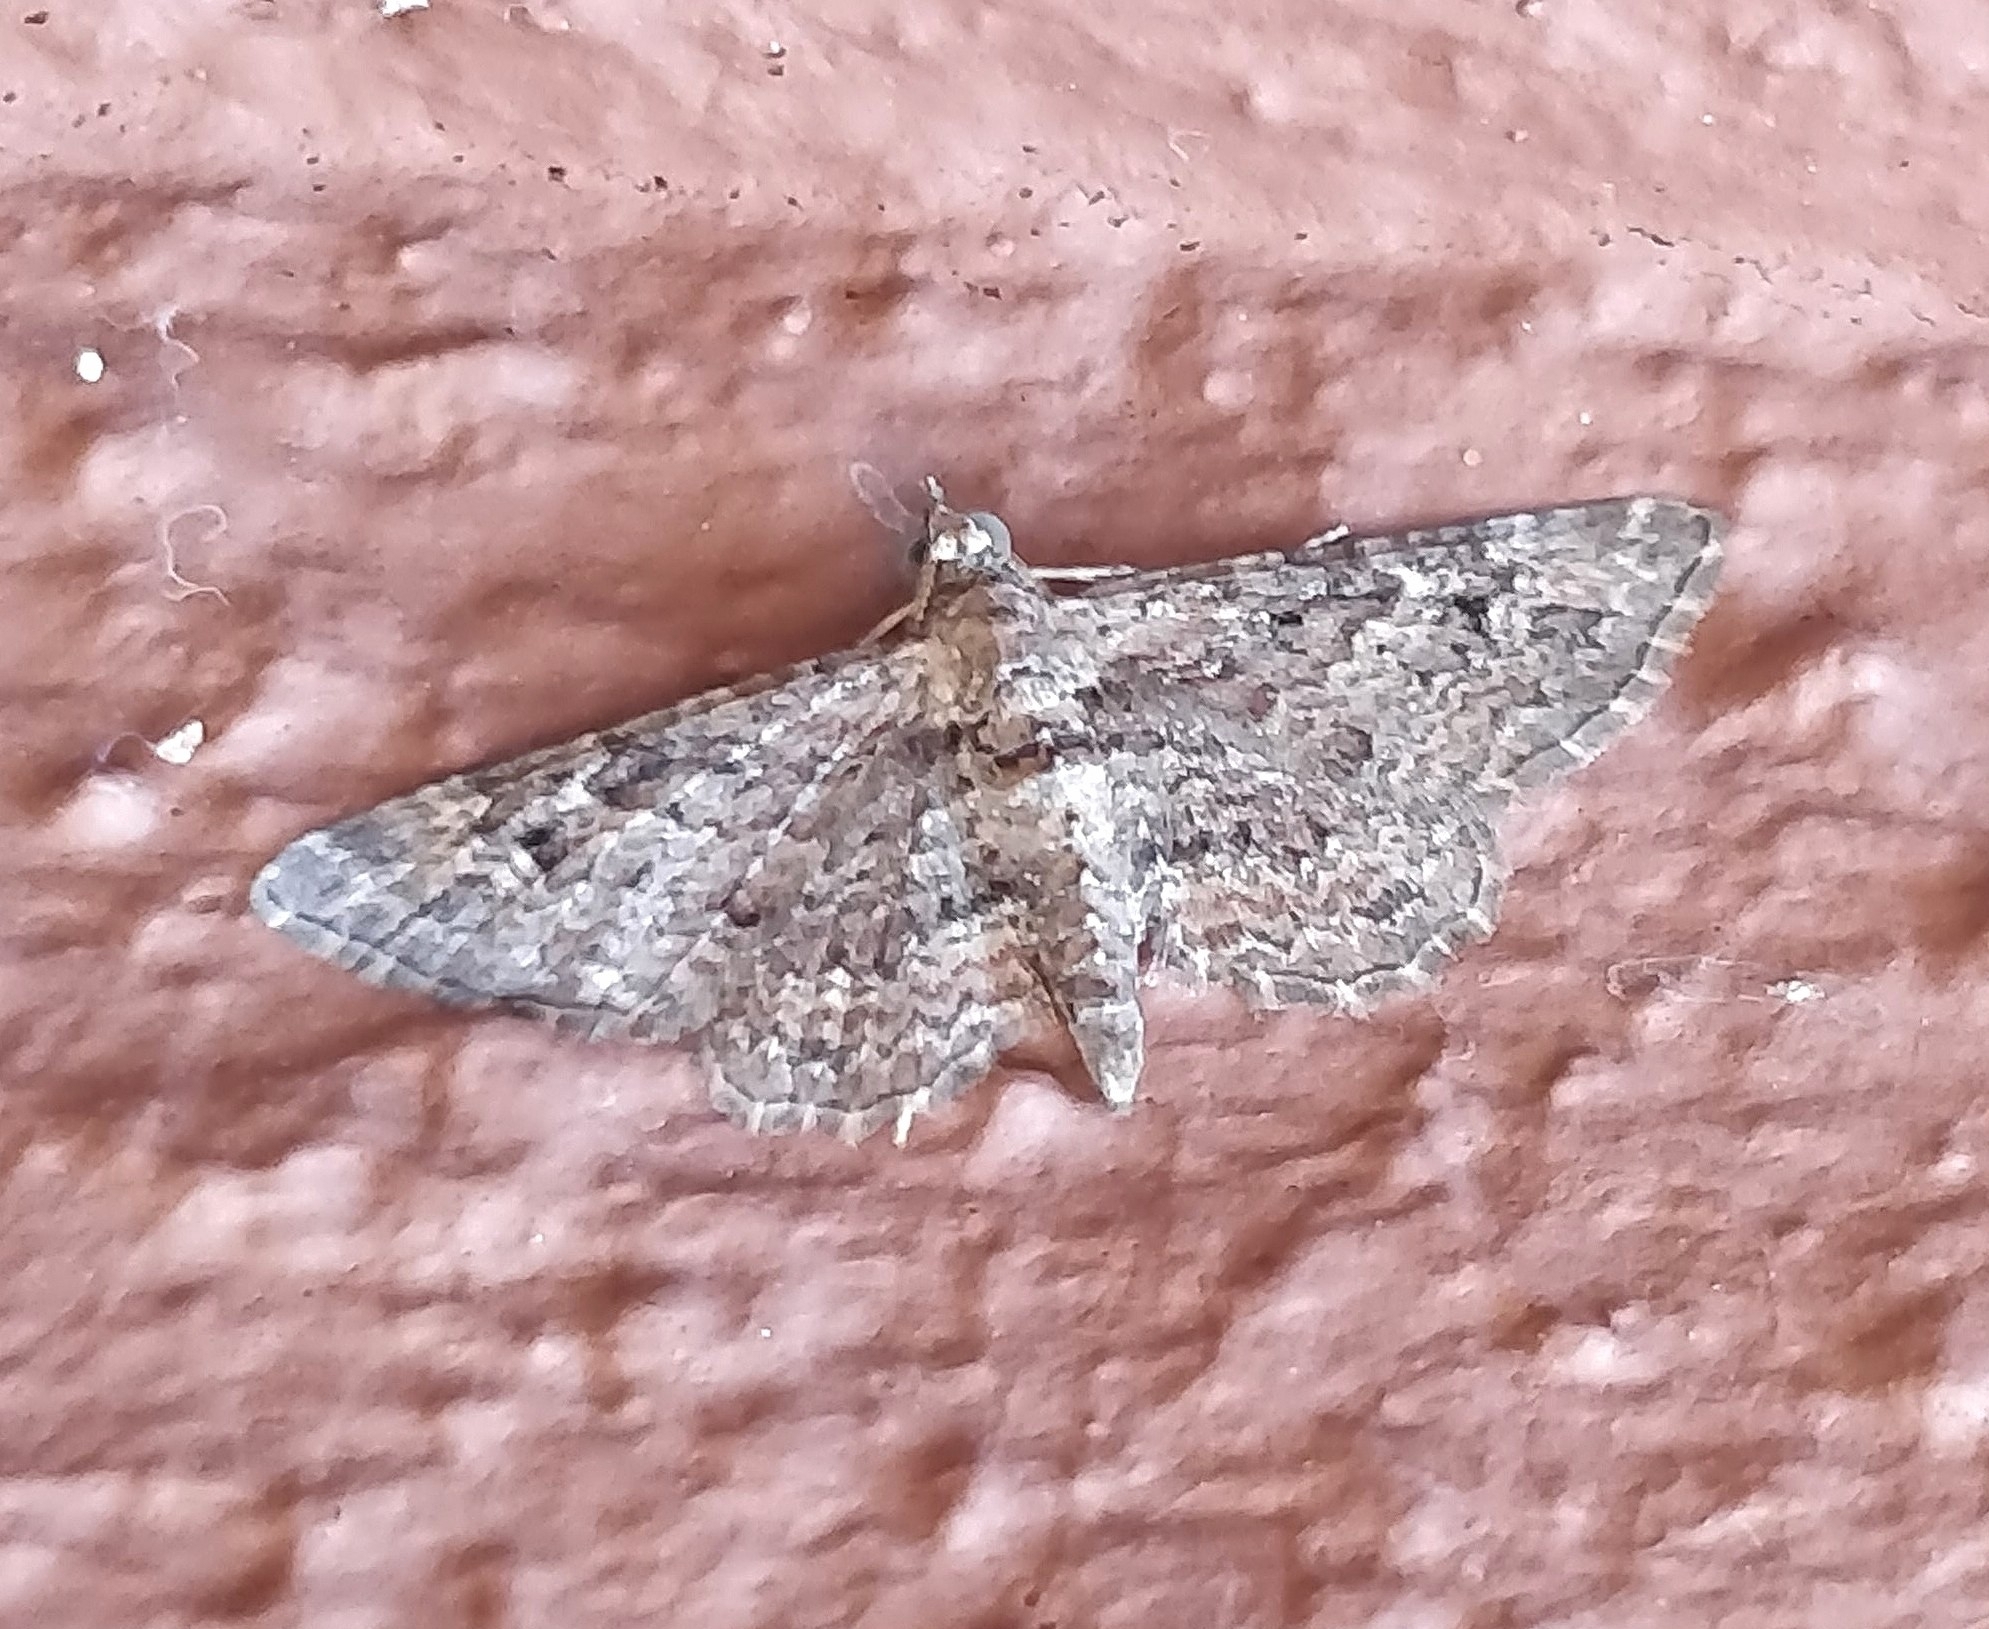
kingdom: Animalia
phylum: Arthropoda
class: Insecta
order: Lepidoptera
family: Geometridae
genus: Gymnoscelis
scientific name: Gymnoscelis rufifasciata
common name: Double-striped pug
